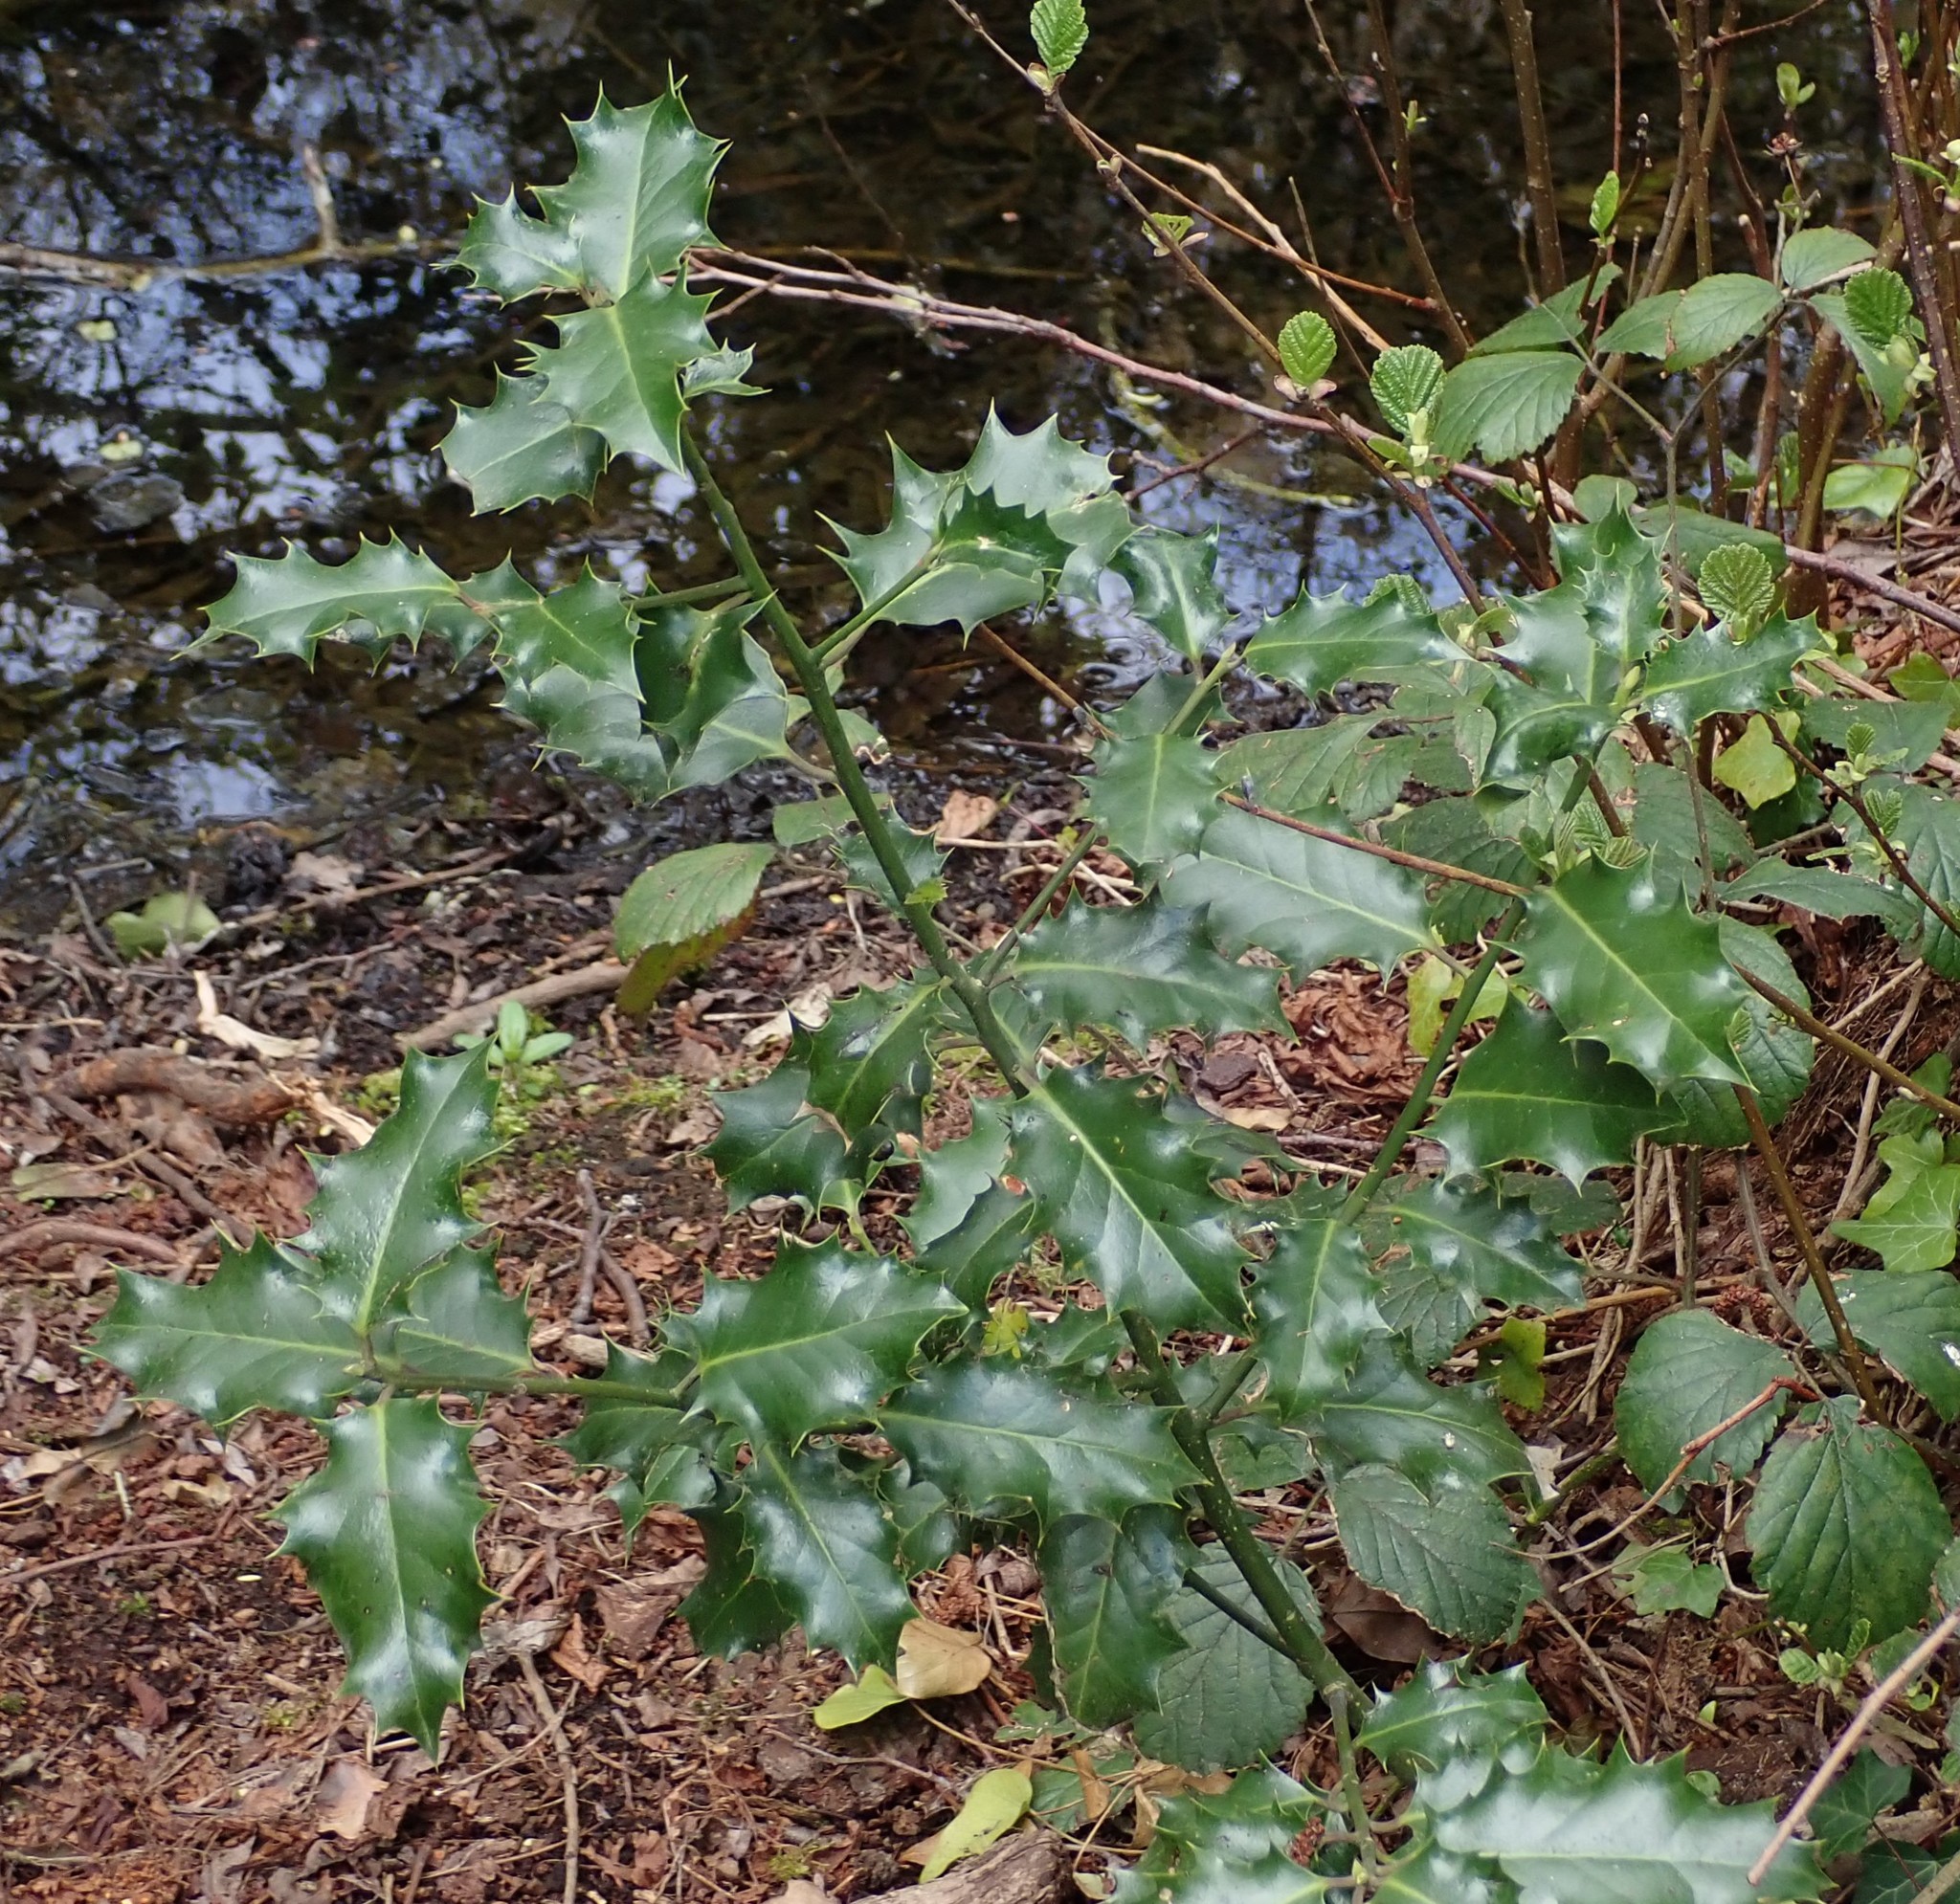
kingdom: Plantae
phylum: Tracheophyta
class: Magnoliopsida
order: Aquifoliales
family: Aquifoliaceae
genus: Ilex
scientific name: Ilex aquifolium
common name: English holly
